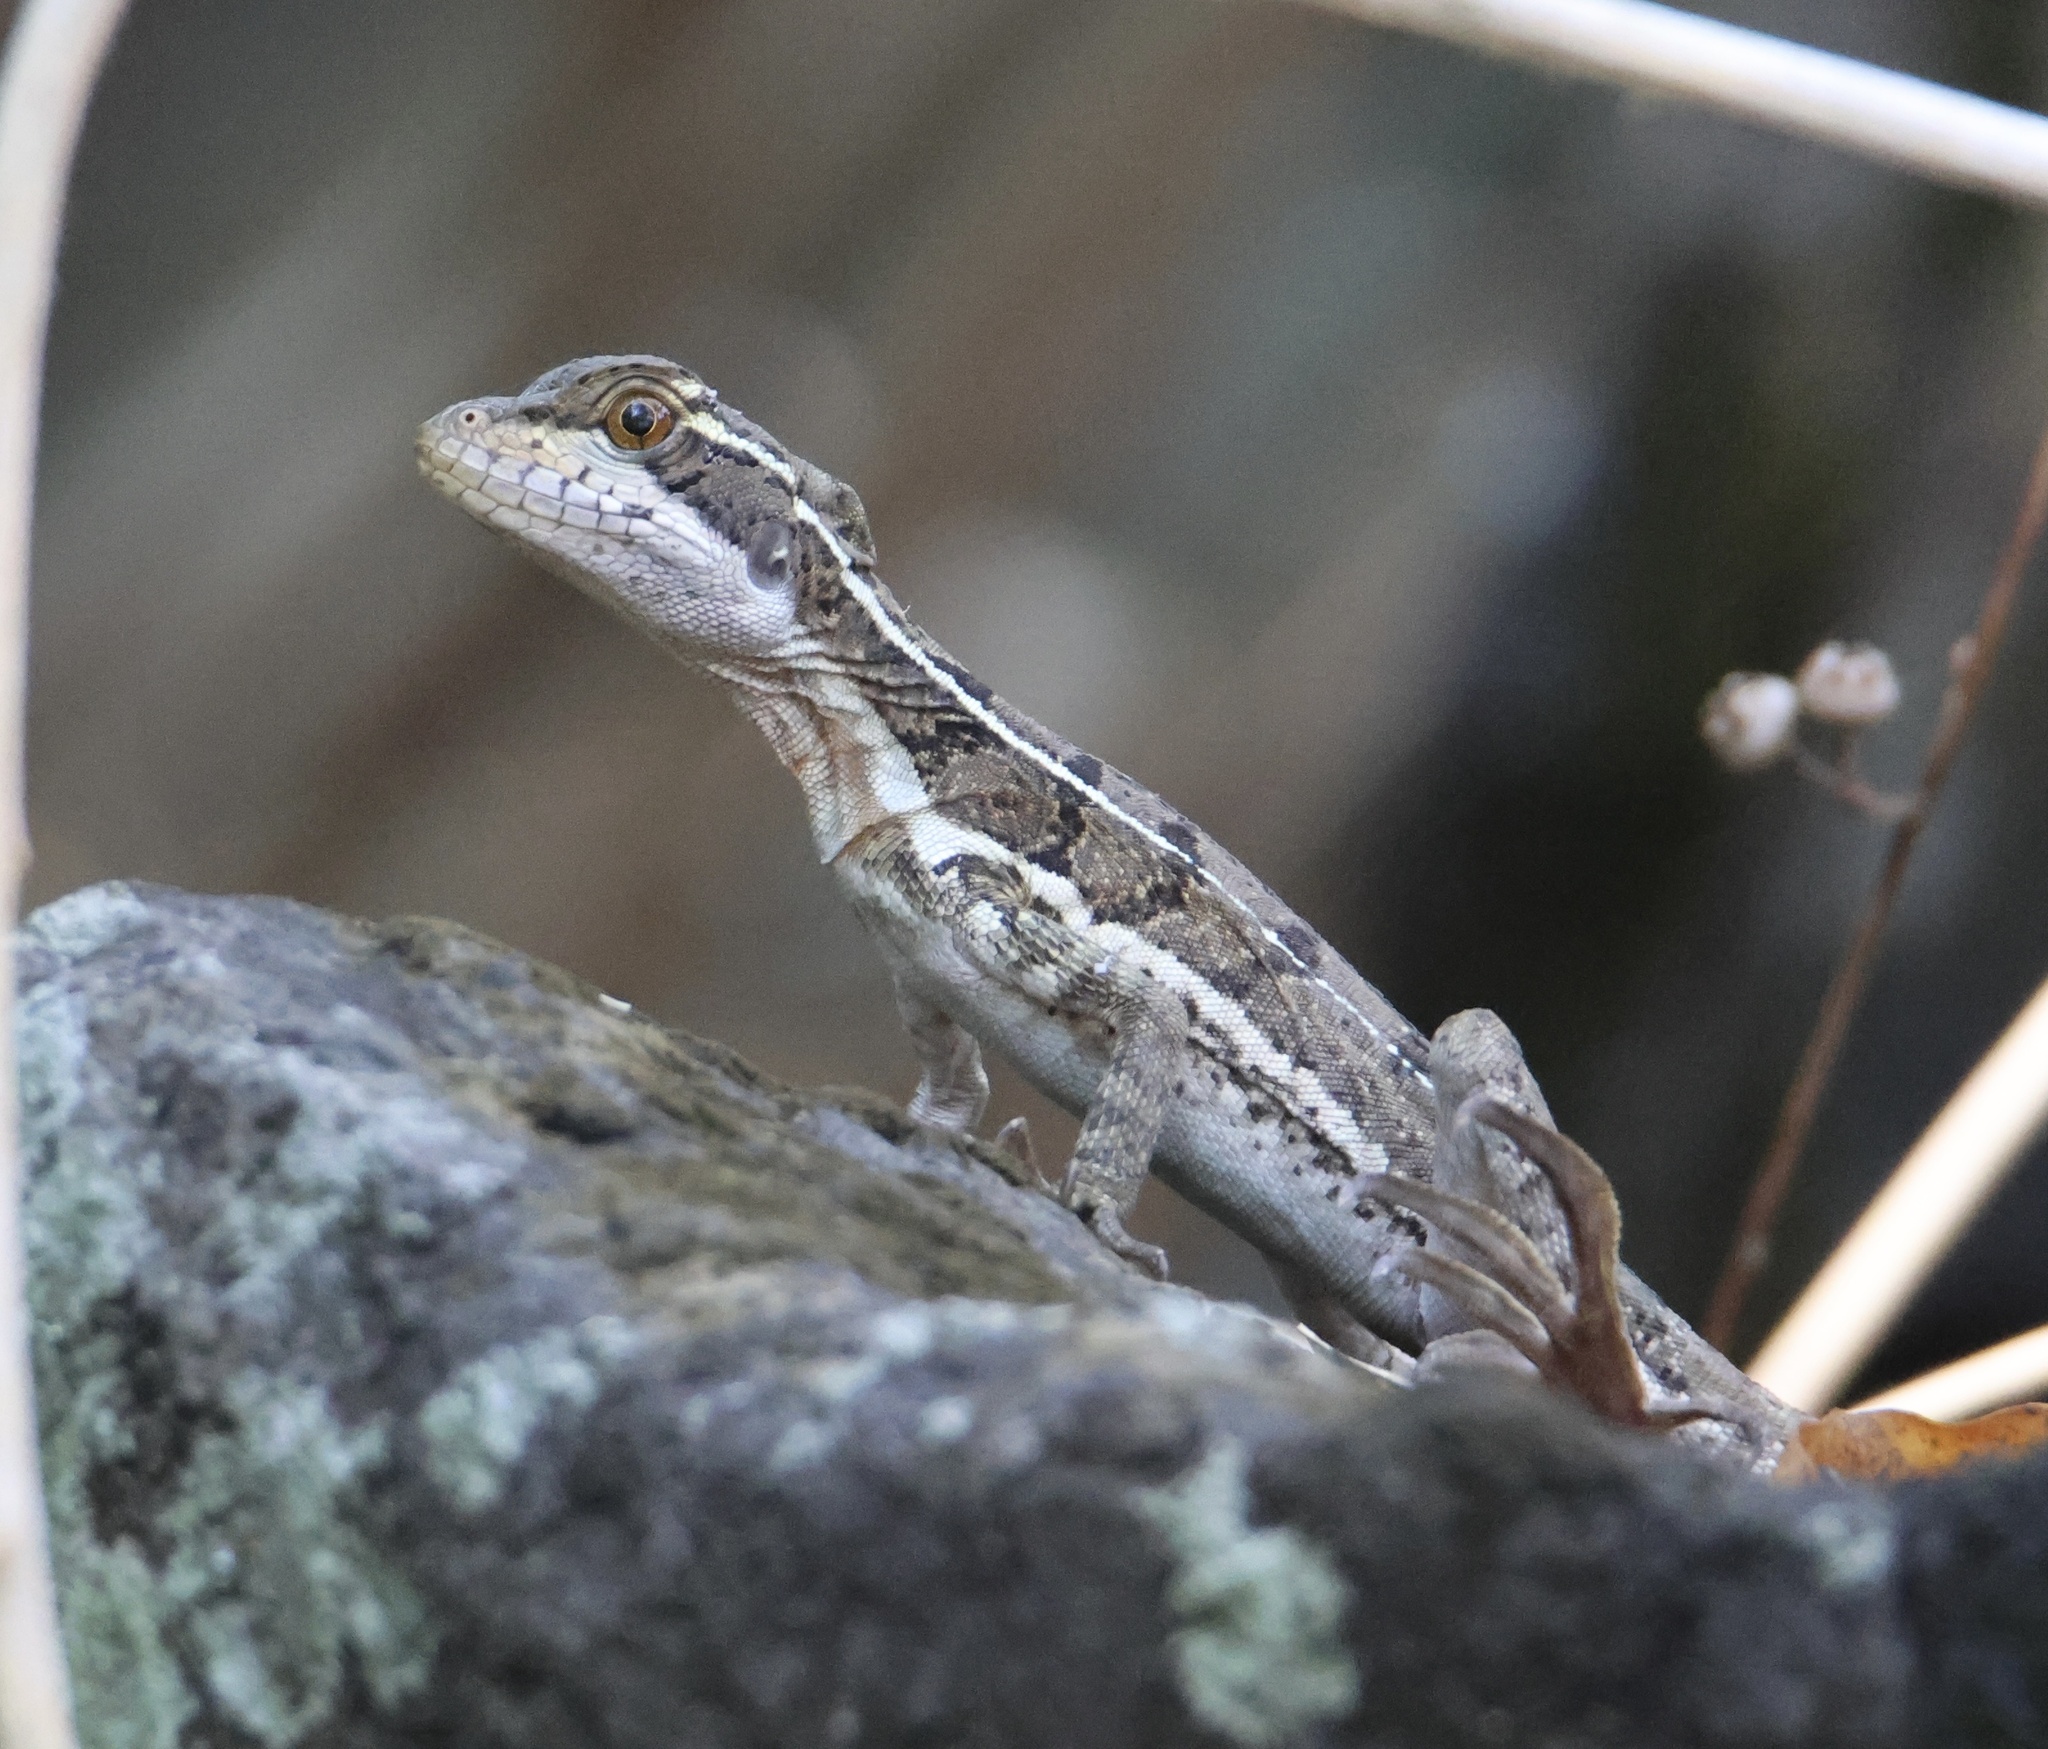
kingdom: Animalia
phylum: Chordata
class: Squamata
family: Corytophanidae
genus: Basiliscus
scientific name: Basiliscus basiliscus
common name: Common basilisk
